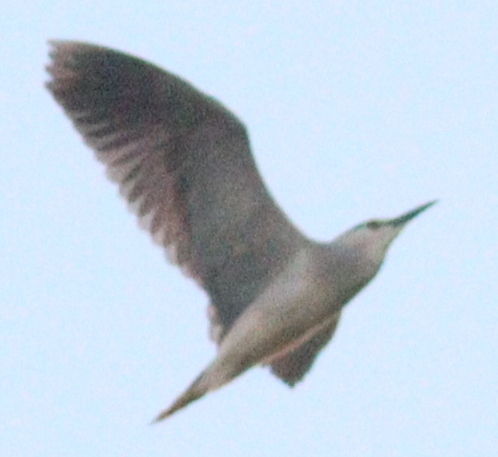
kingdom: Animalia
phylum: Chordata
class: Aves
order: Pelecaniformes
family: Ardeidae
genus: Nycticorax
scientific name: Nycticorax nycticorax
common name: Black-crowned night heron
